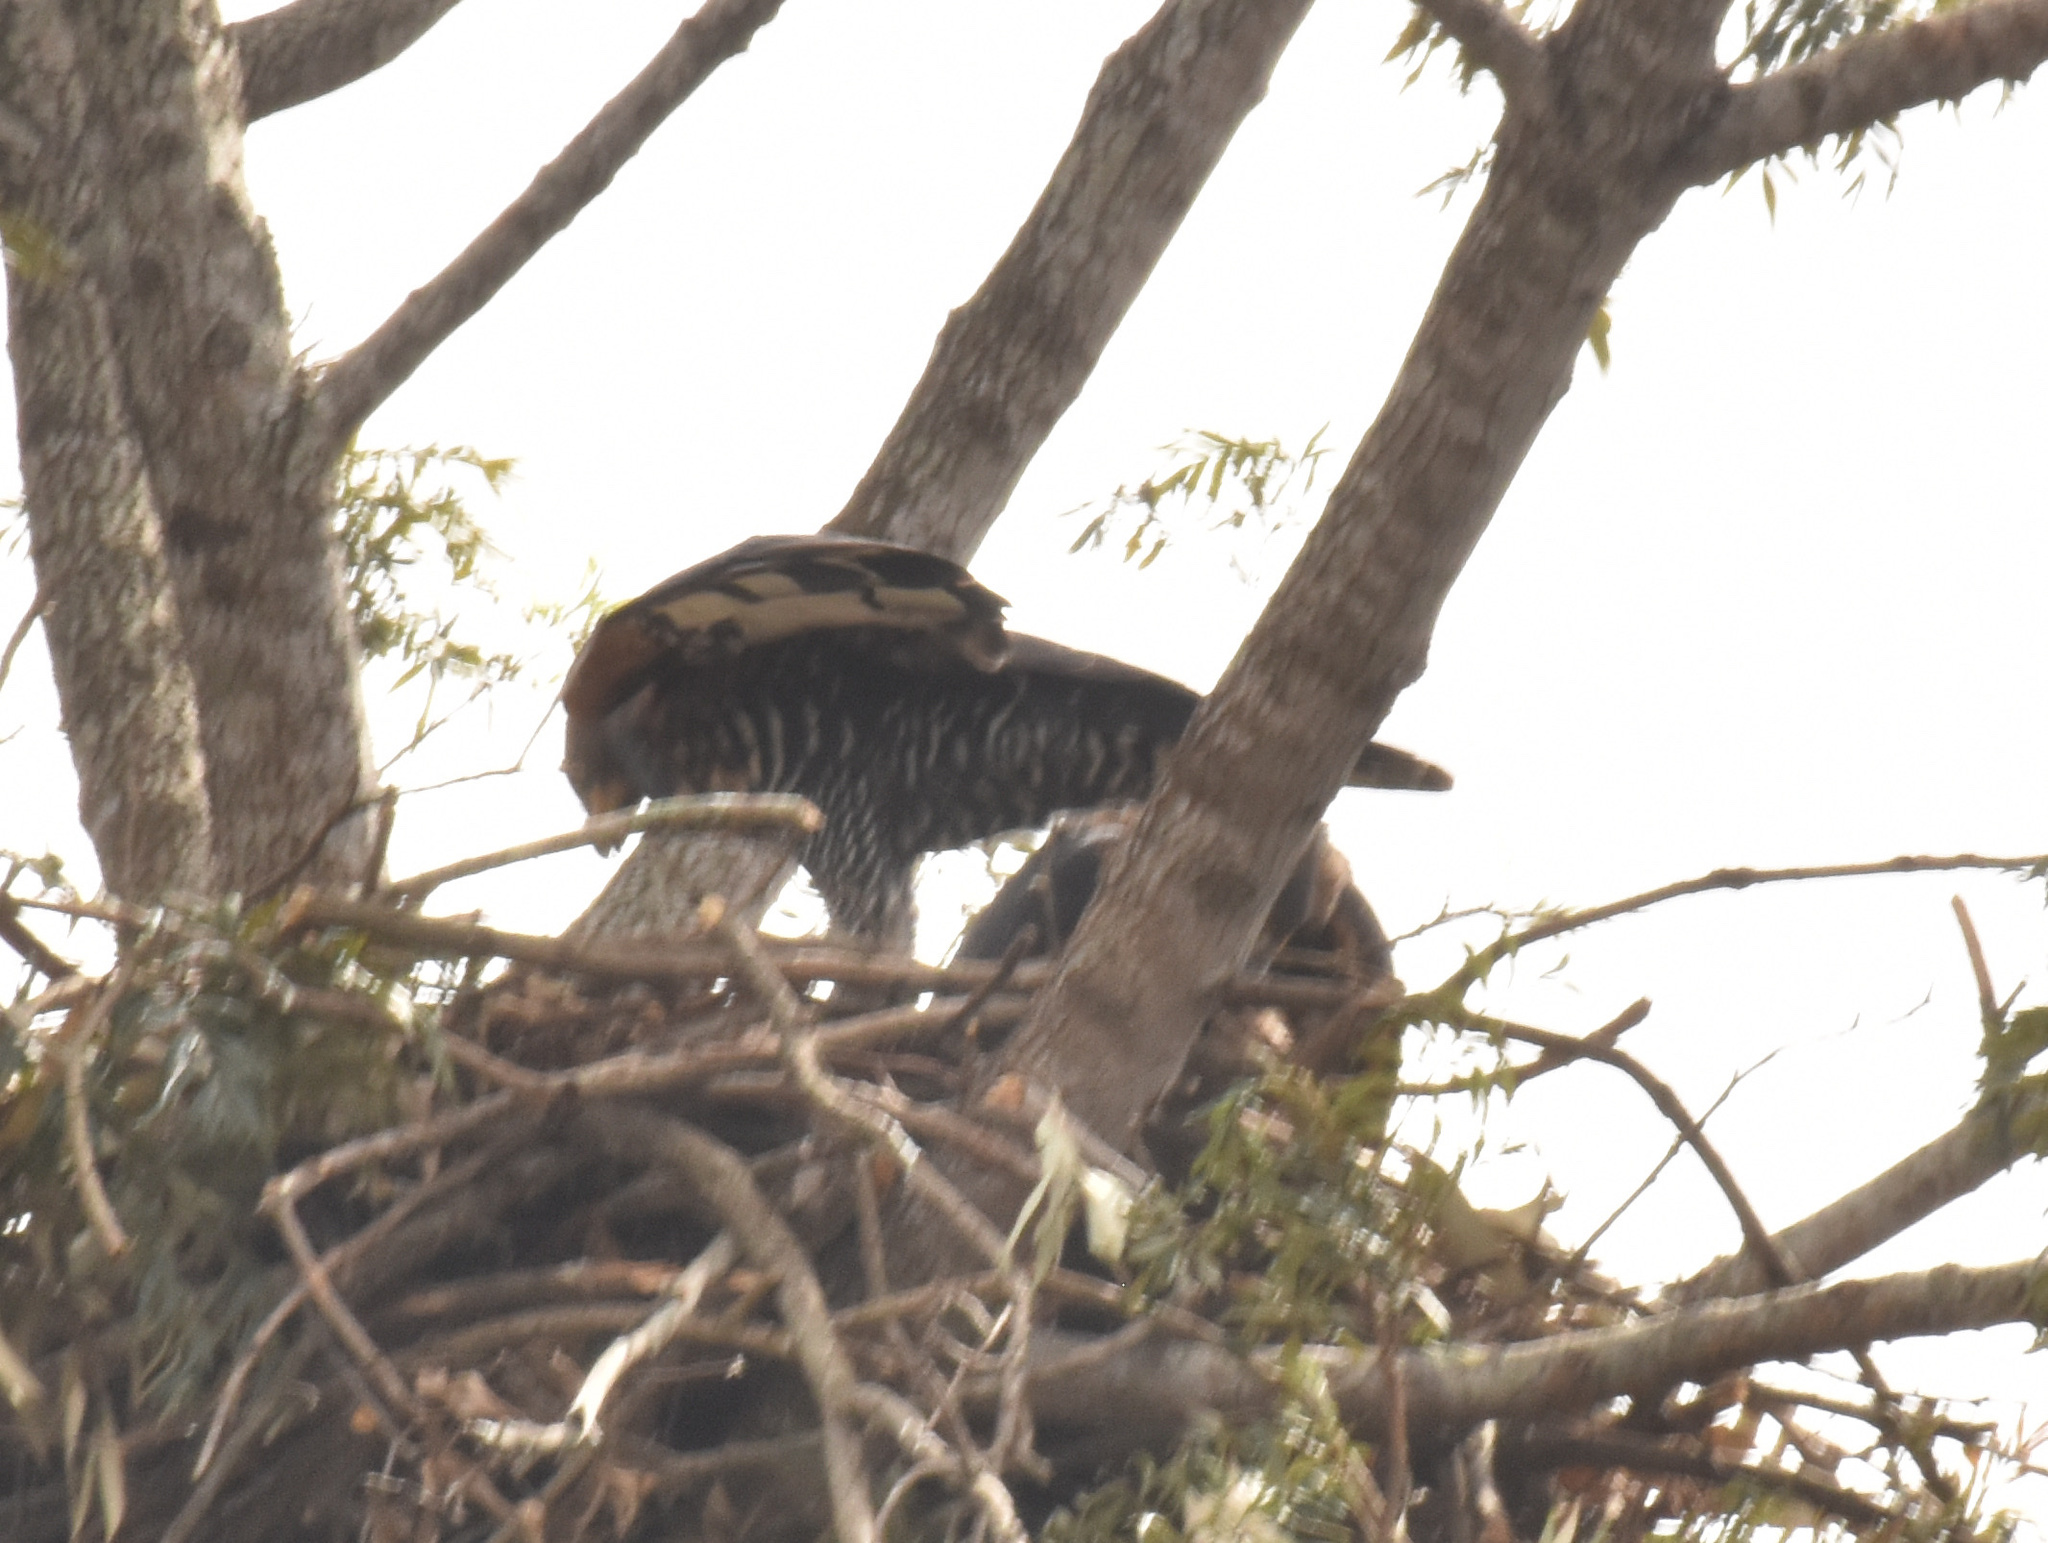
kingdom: Animalia
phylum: Chordata
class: Aves
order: Accipitriformes
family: Accipitridae
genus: Stephanoaetus
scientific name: Stephanoaetus coronatus
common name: Crowned eagle
